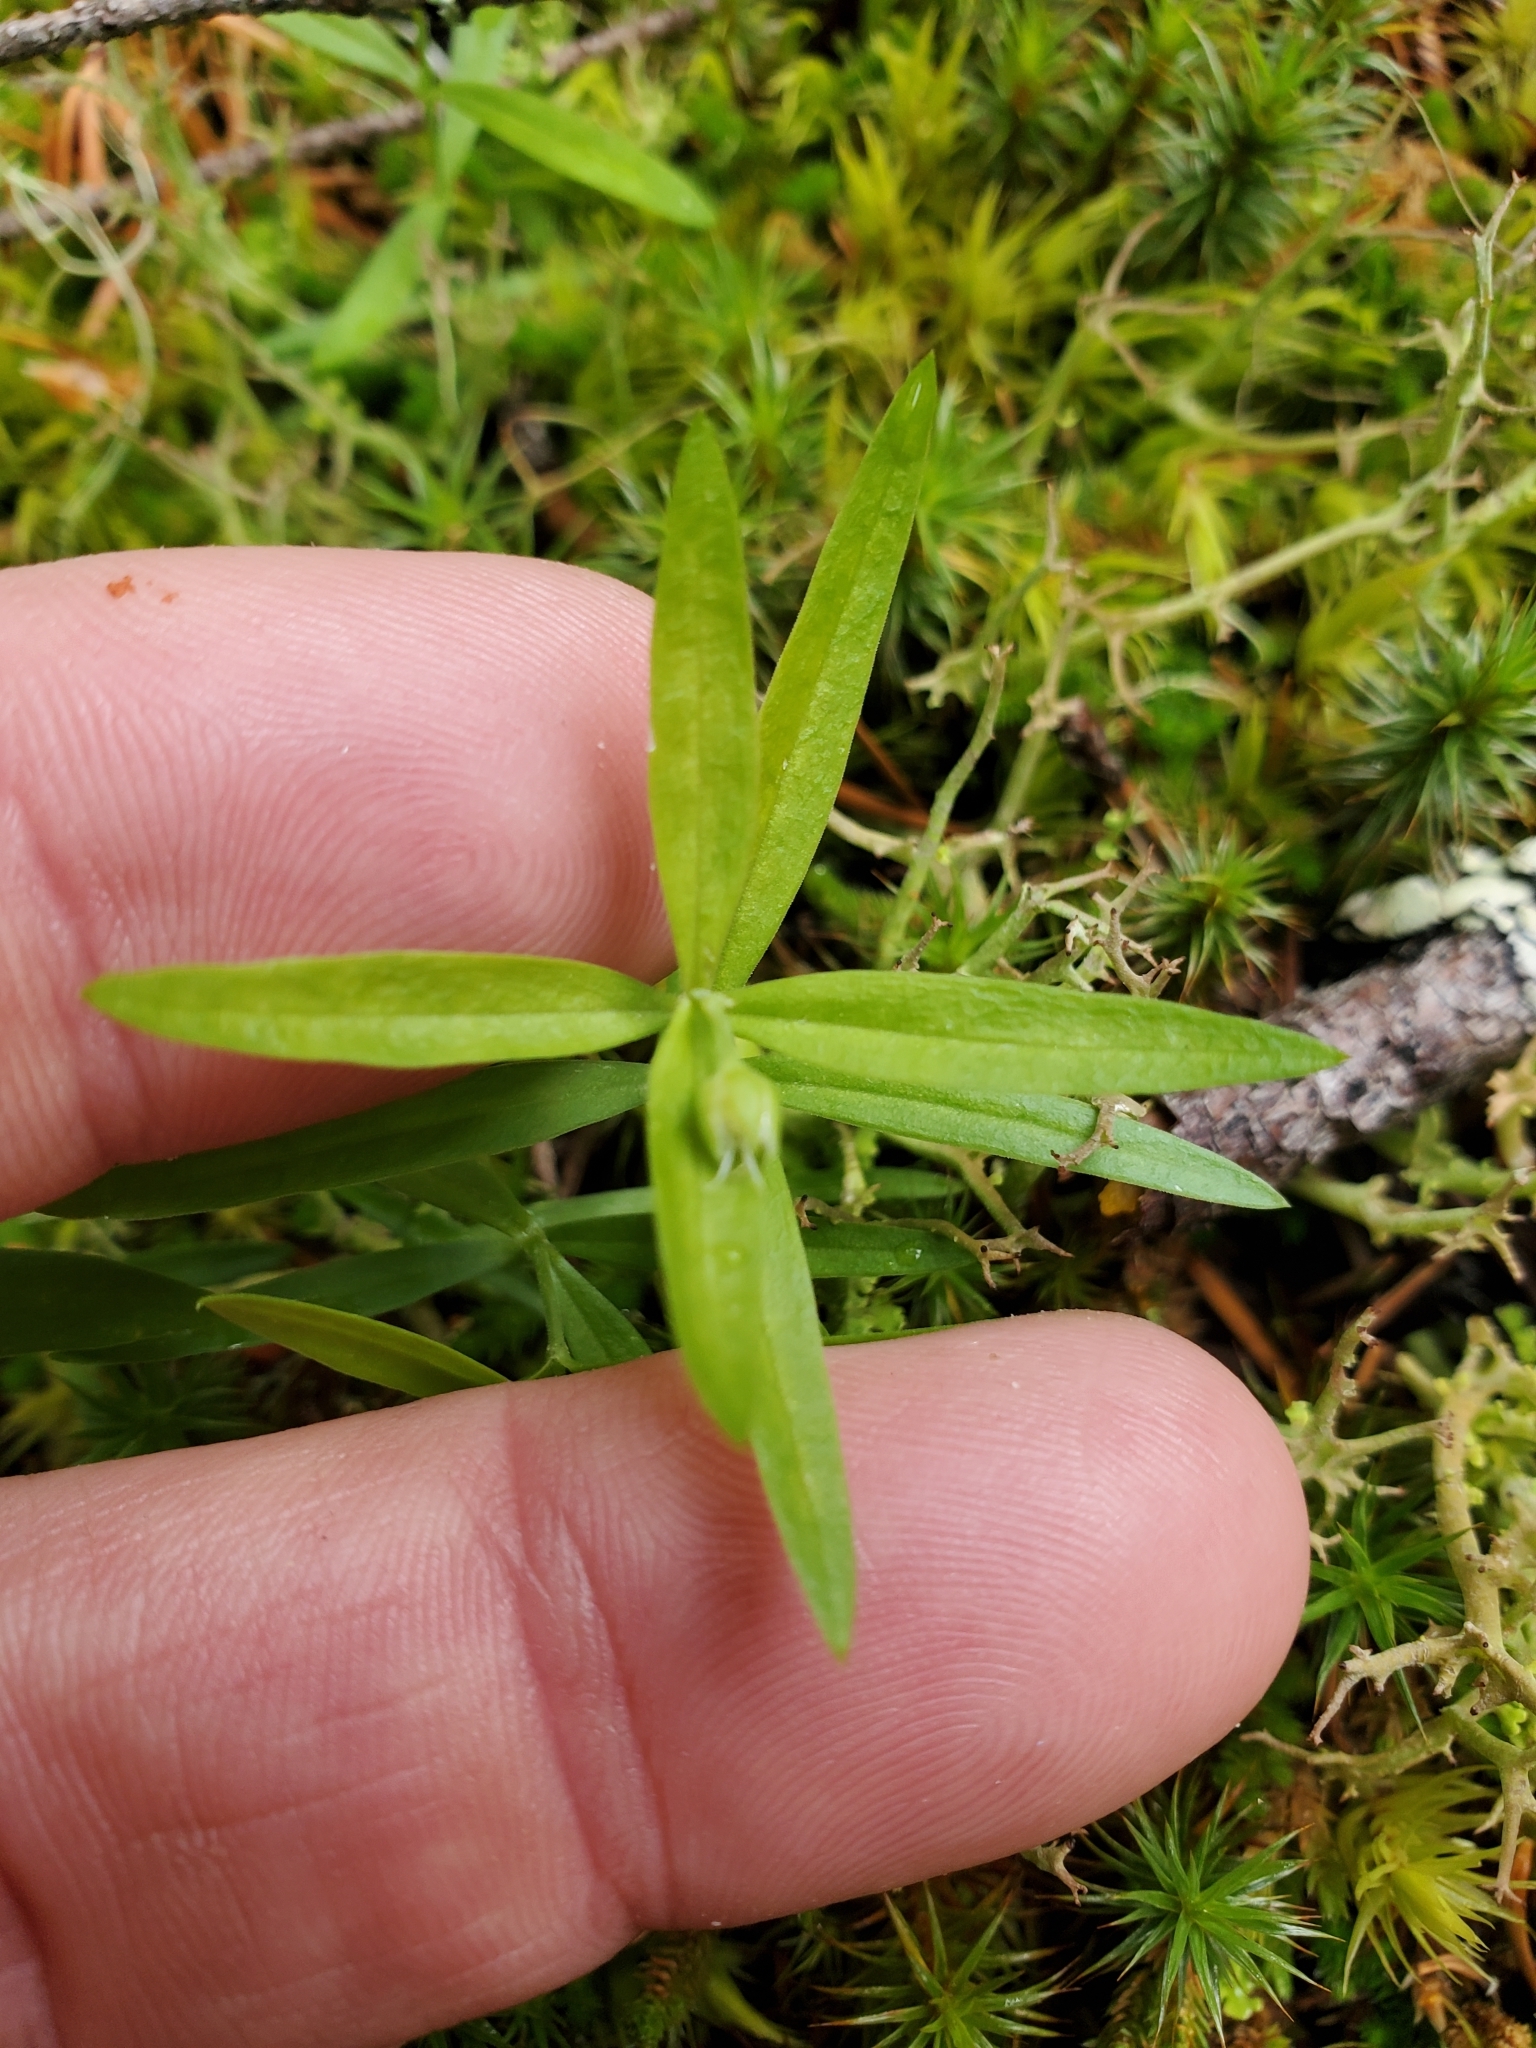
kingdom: Plantae
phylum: Tracheophyta
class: Magnoliopsida
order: Caryophyllales
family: Caryophyllaceae
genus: Moehringia
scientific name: Moehringia macrophylla
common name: Big-leaf sandwort
